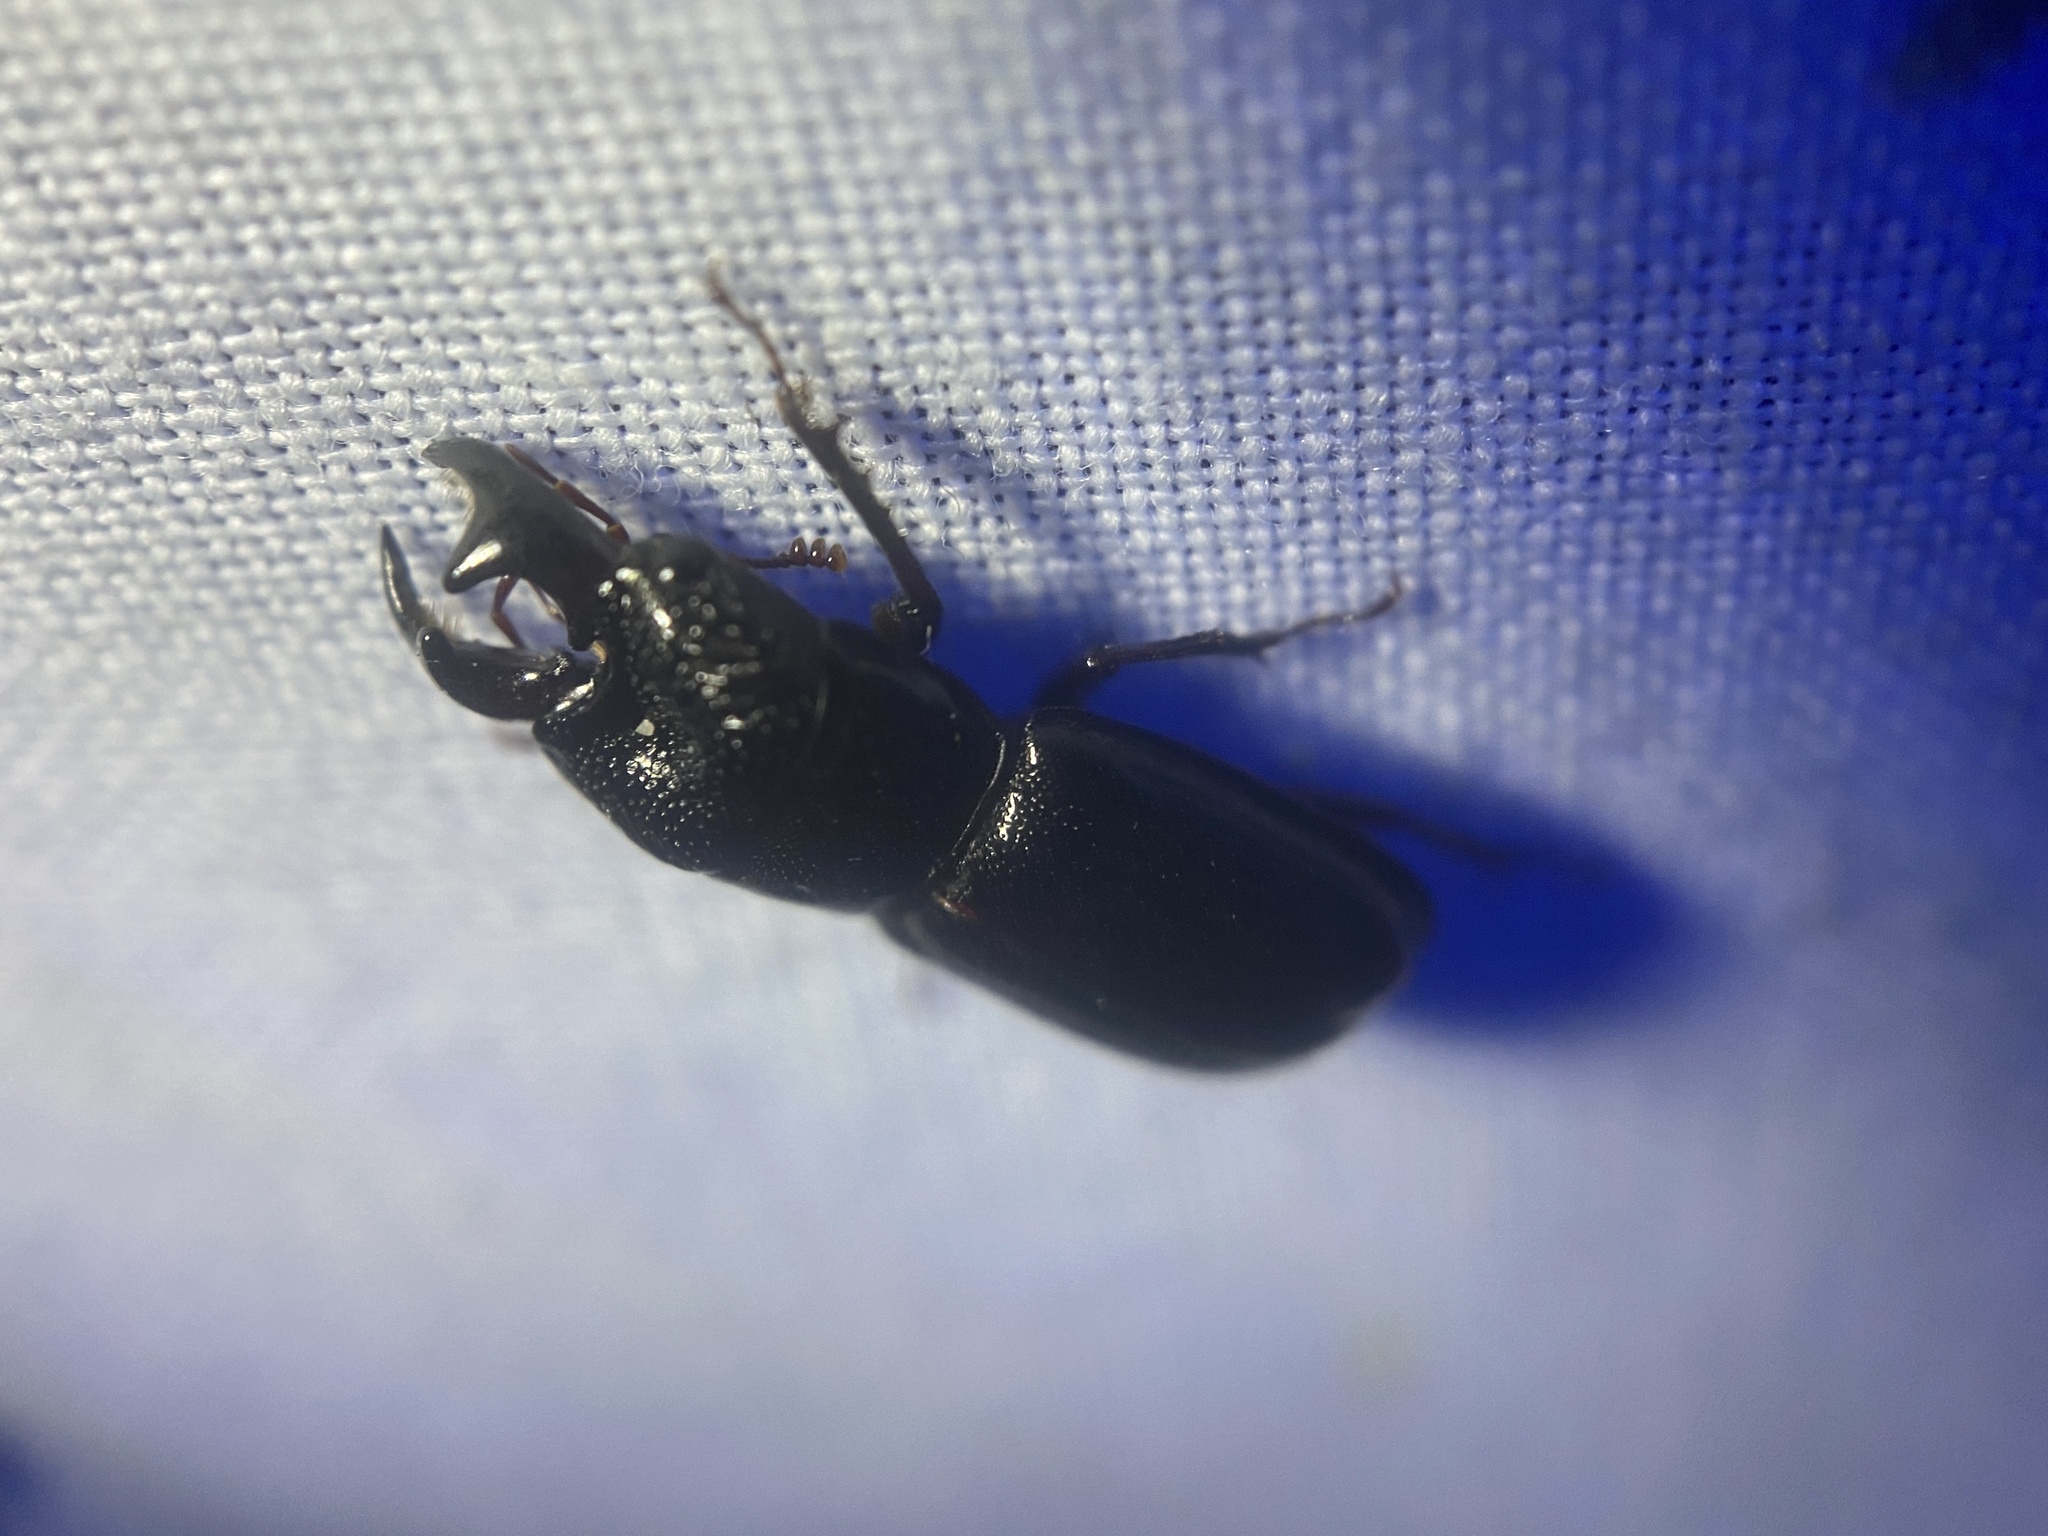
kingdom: Animalia
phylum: Arthropoda
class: Insecta
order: Coleoptera
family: Lucanidae
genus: Ceruchus
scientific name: Ceruchus piceus
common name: Red-rot decay stag beetle
